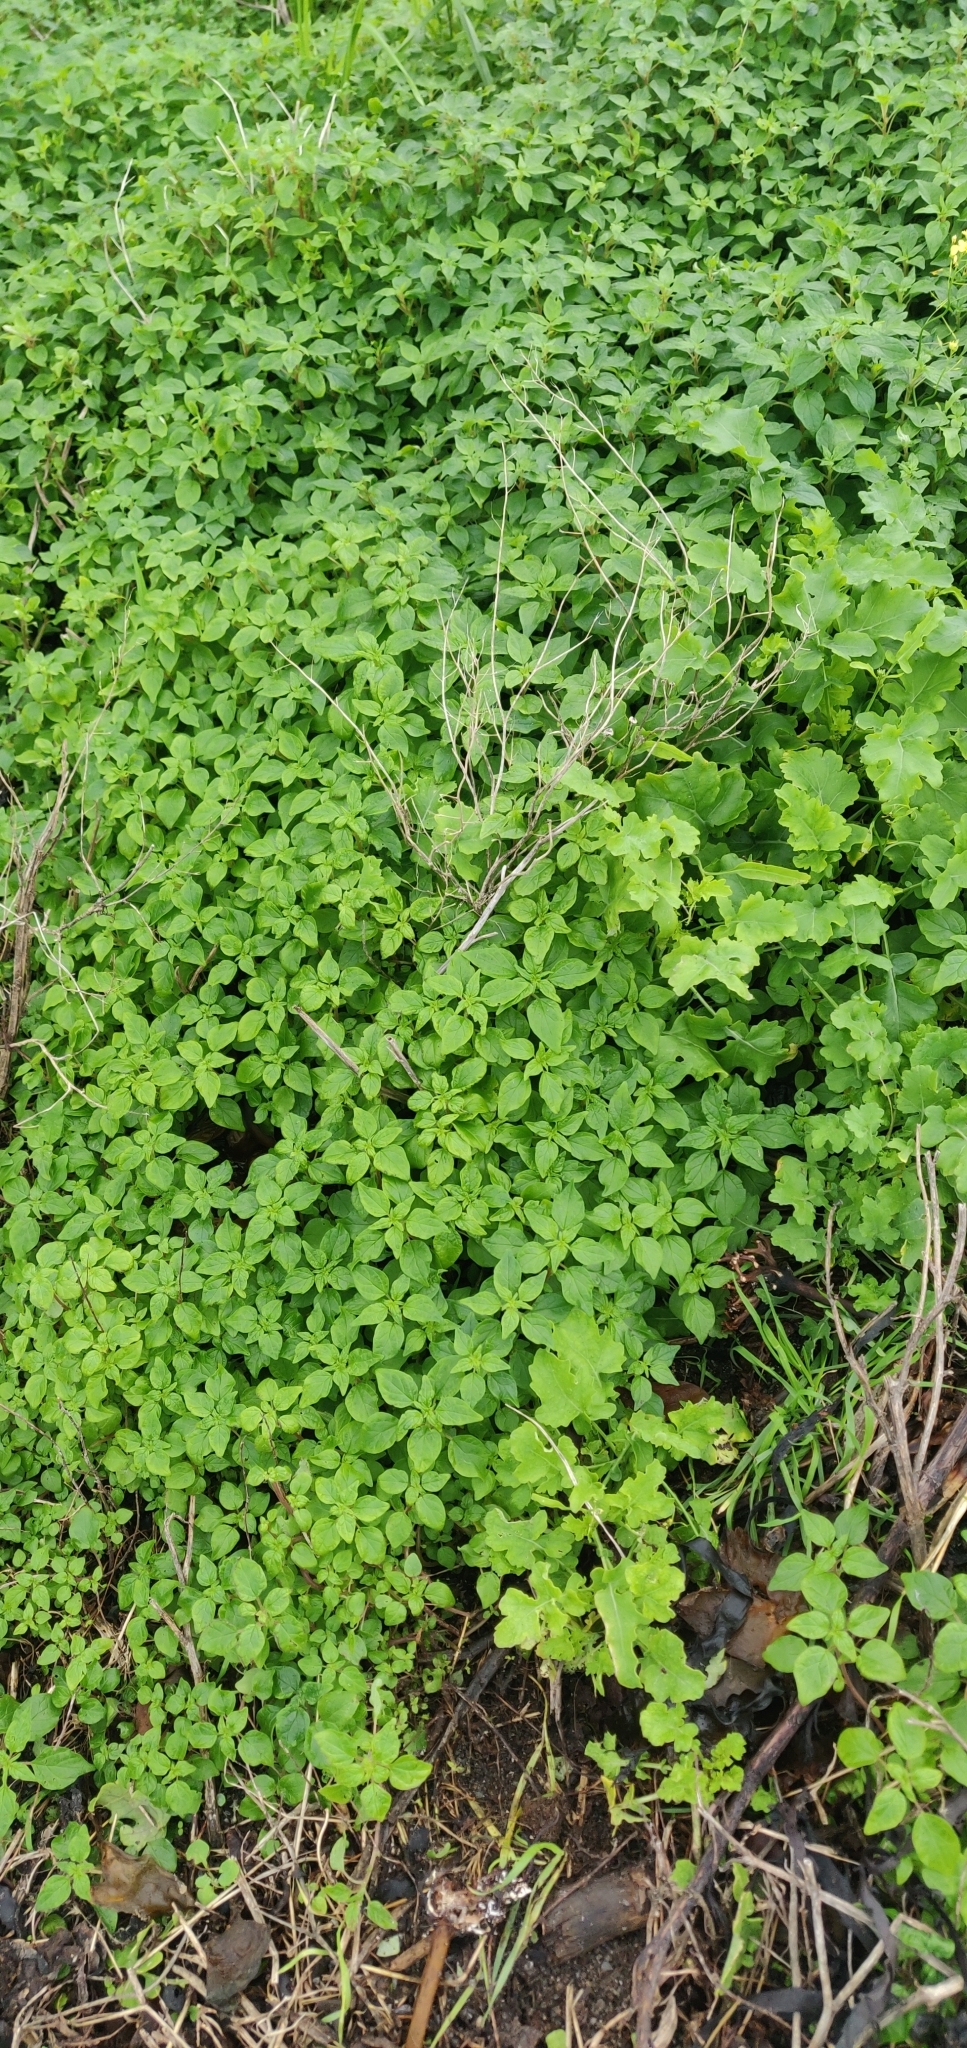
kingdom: Plantae
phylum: Tracheophyta
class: Magnoliopsida
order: Rosales
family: Urticaceae
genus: Parietaria
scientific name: Parietaria judaica
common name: Pellitory-of-the-wall
